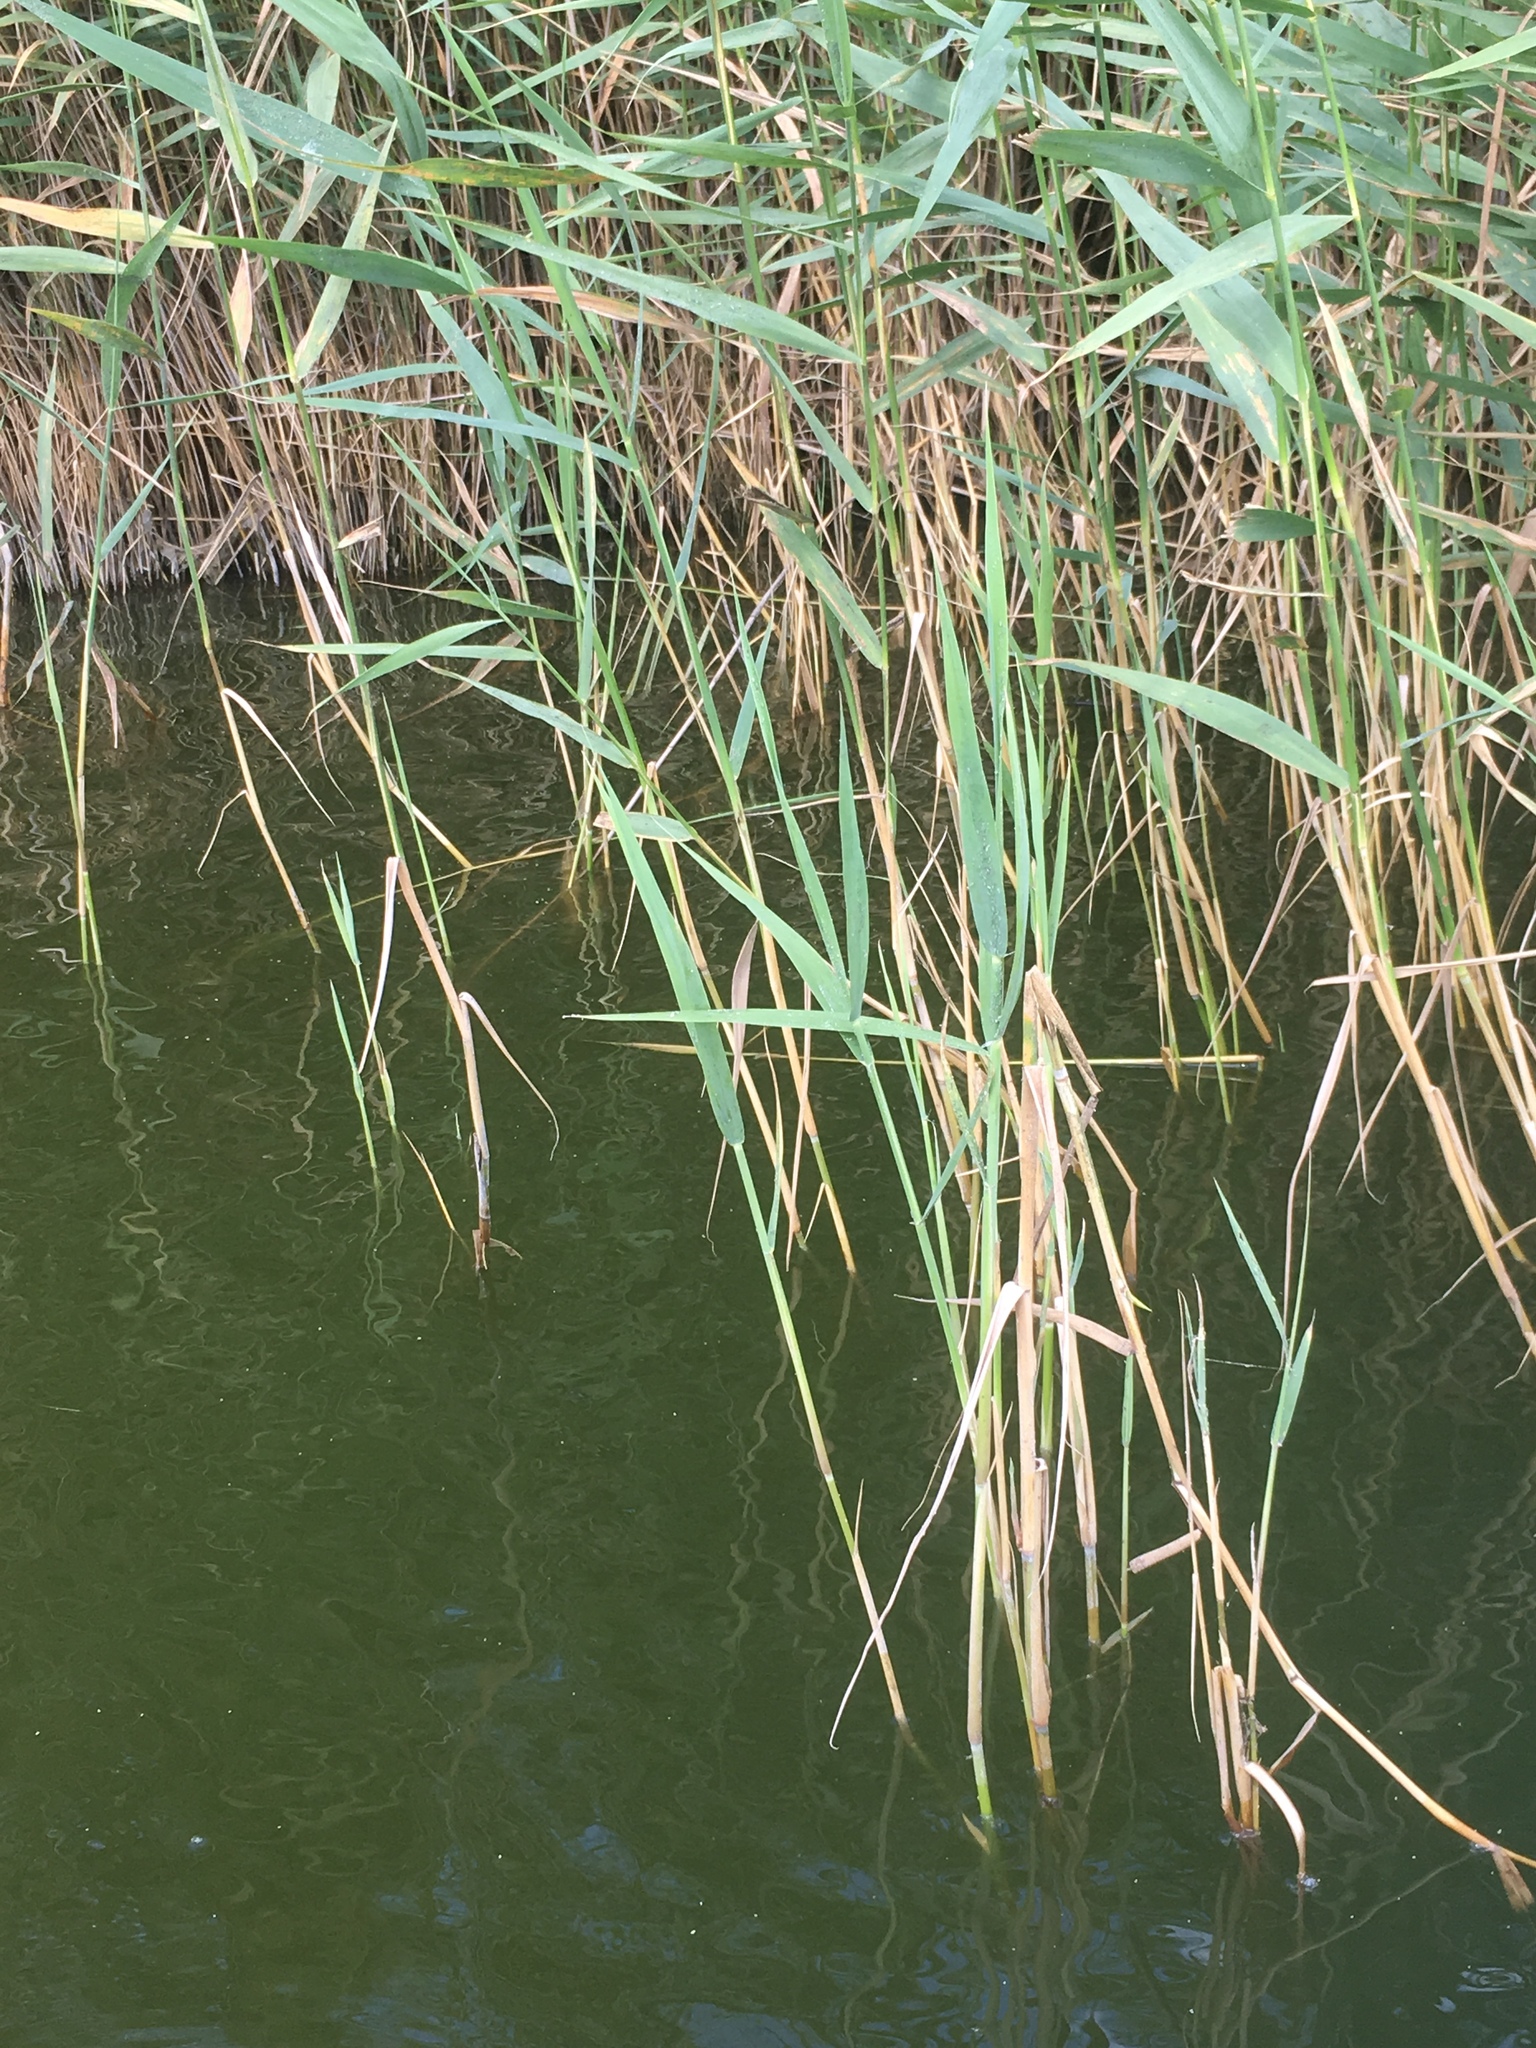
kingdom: Plantae
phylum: Tracheophyta
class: Liliopsida
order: Poales
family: Poaceae
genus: Phragmites
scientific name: Phragmites australis
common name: Common reed
